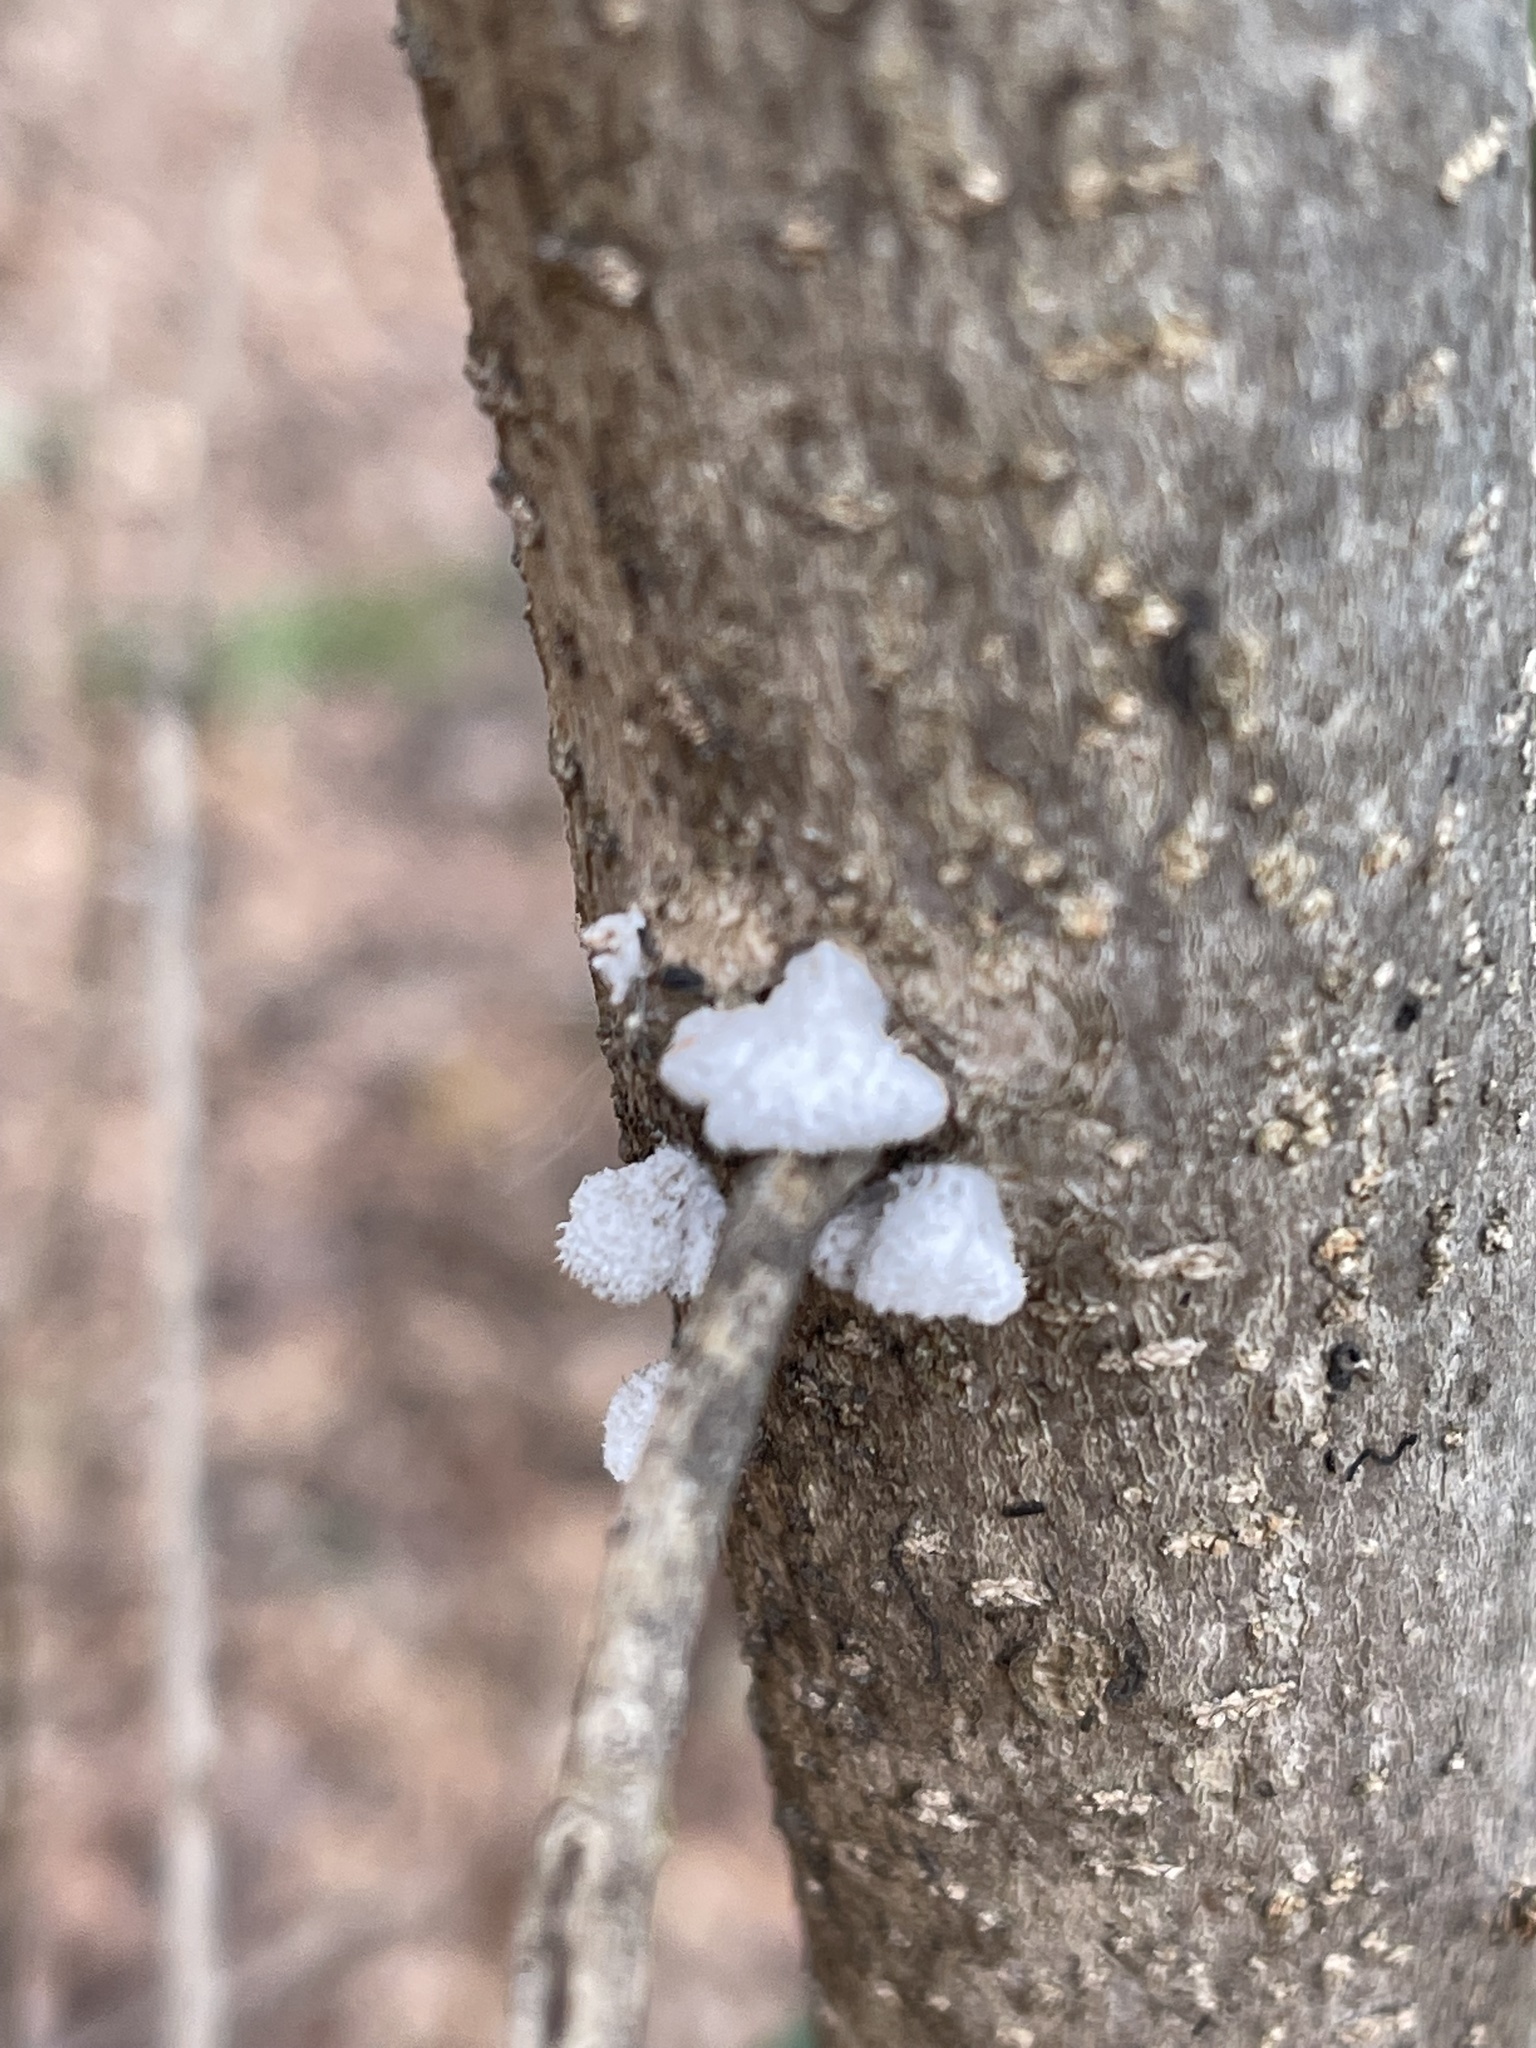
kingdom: Fungi
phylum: Basidiomycota
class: Agaricomycetes
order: Agaricales
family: Schizophyllaceae
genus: Schizophyllum
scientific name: Schizophyllum commune
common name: Common porecrust
